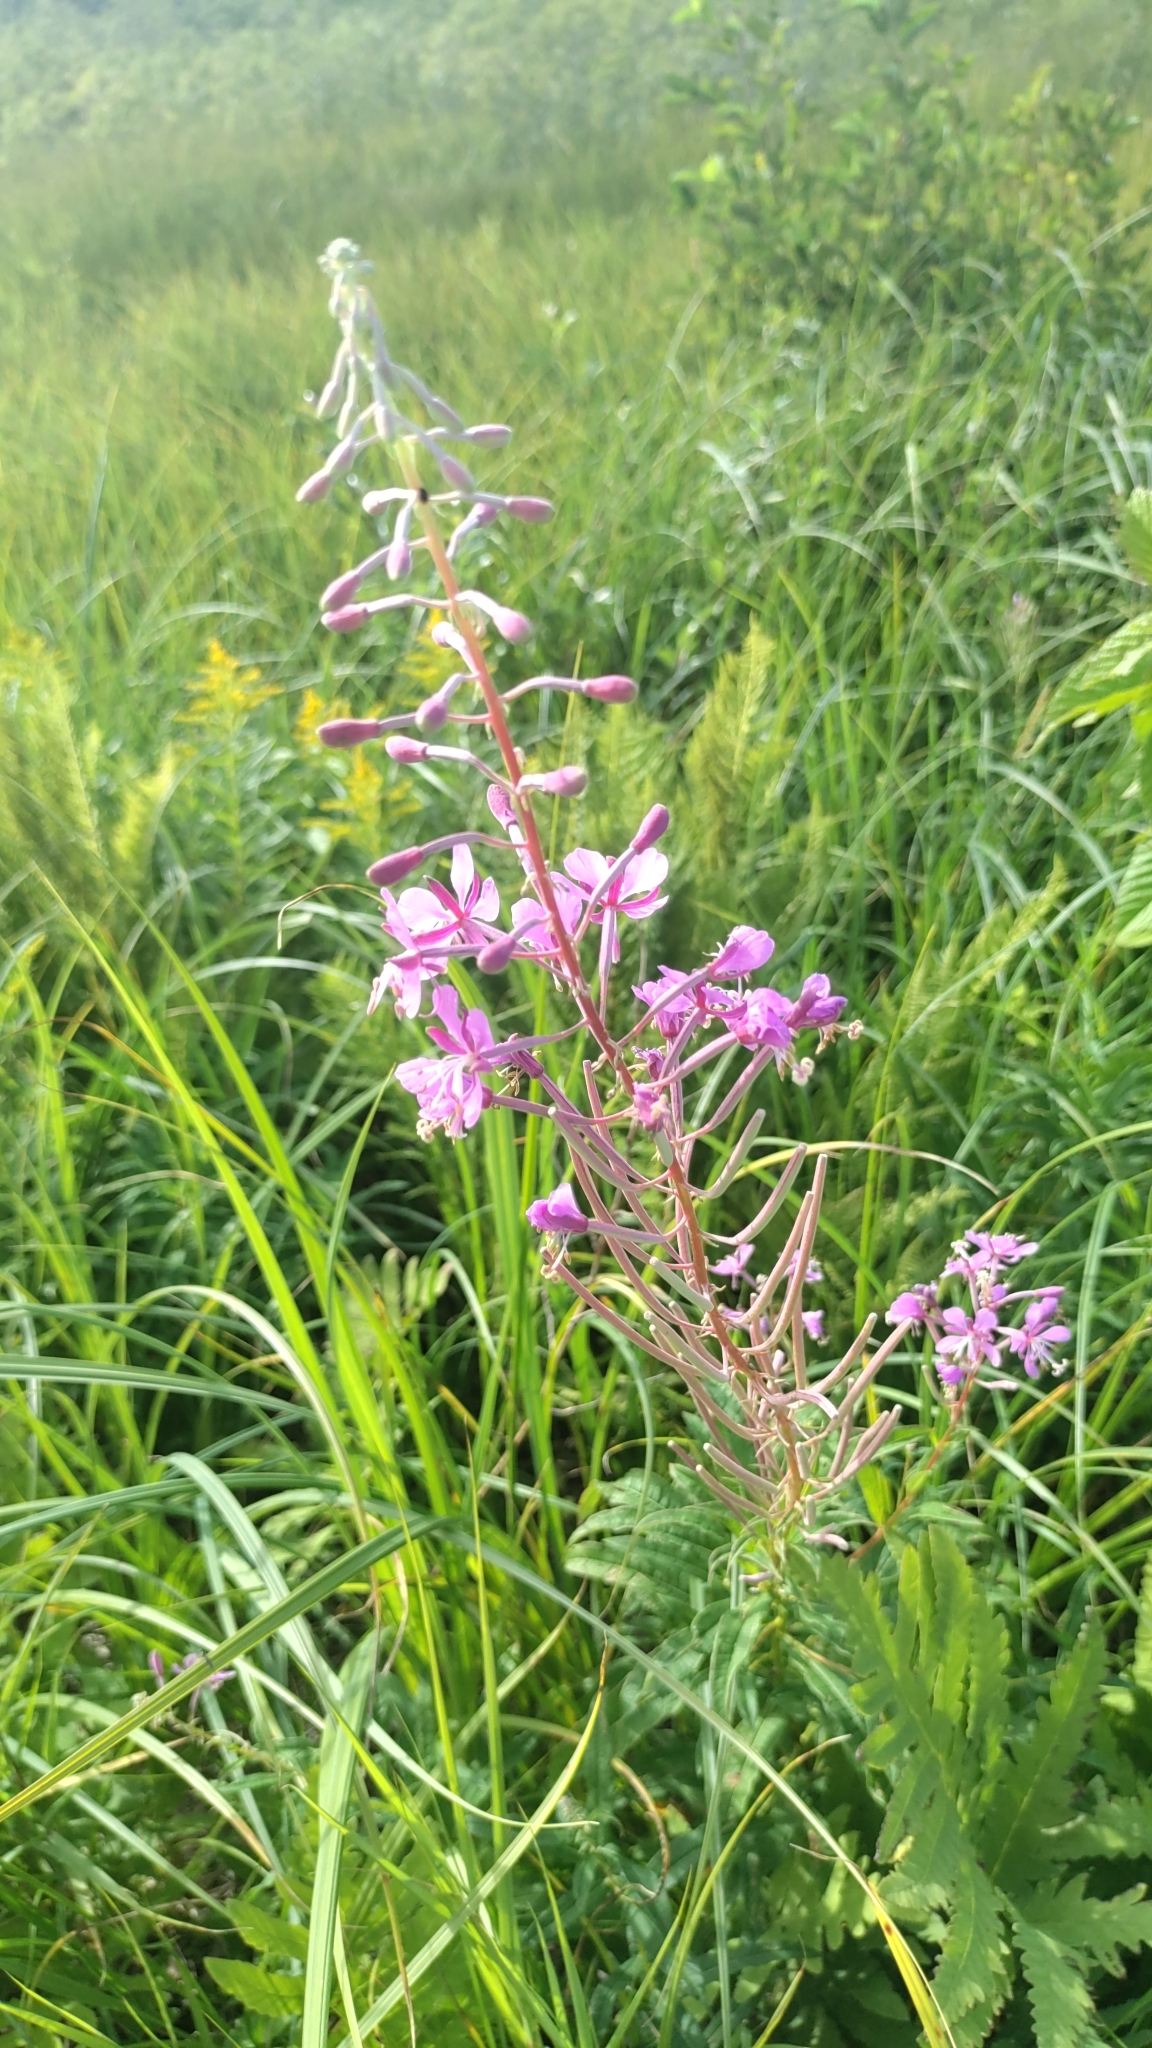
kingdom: Plantae
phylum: Tracheophyta
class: Magnoliopsida
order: Myrtales
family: Onagraceae
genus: Chamaenerion
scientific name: Chamaenerion angustifolium
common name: Fireweed
